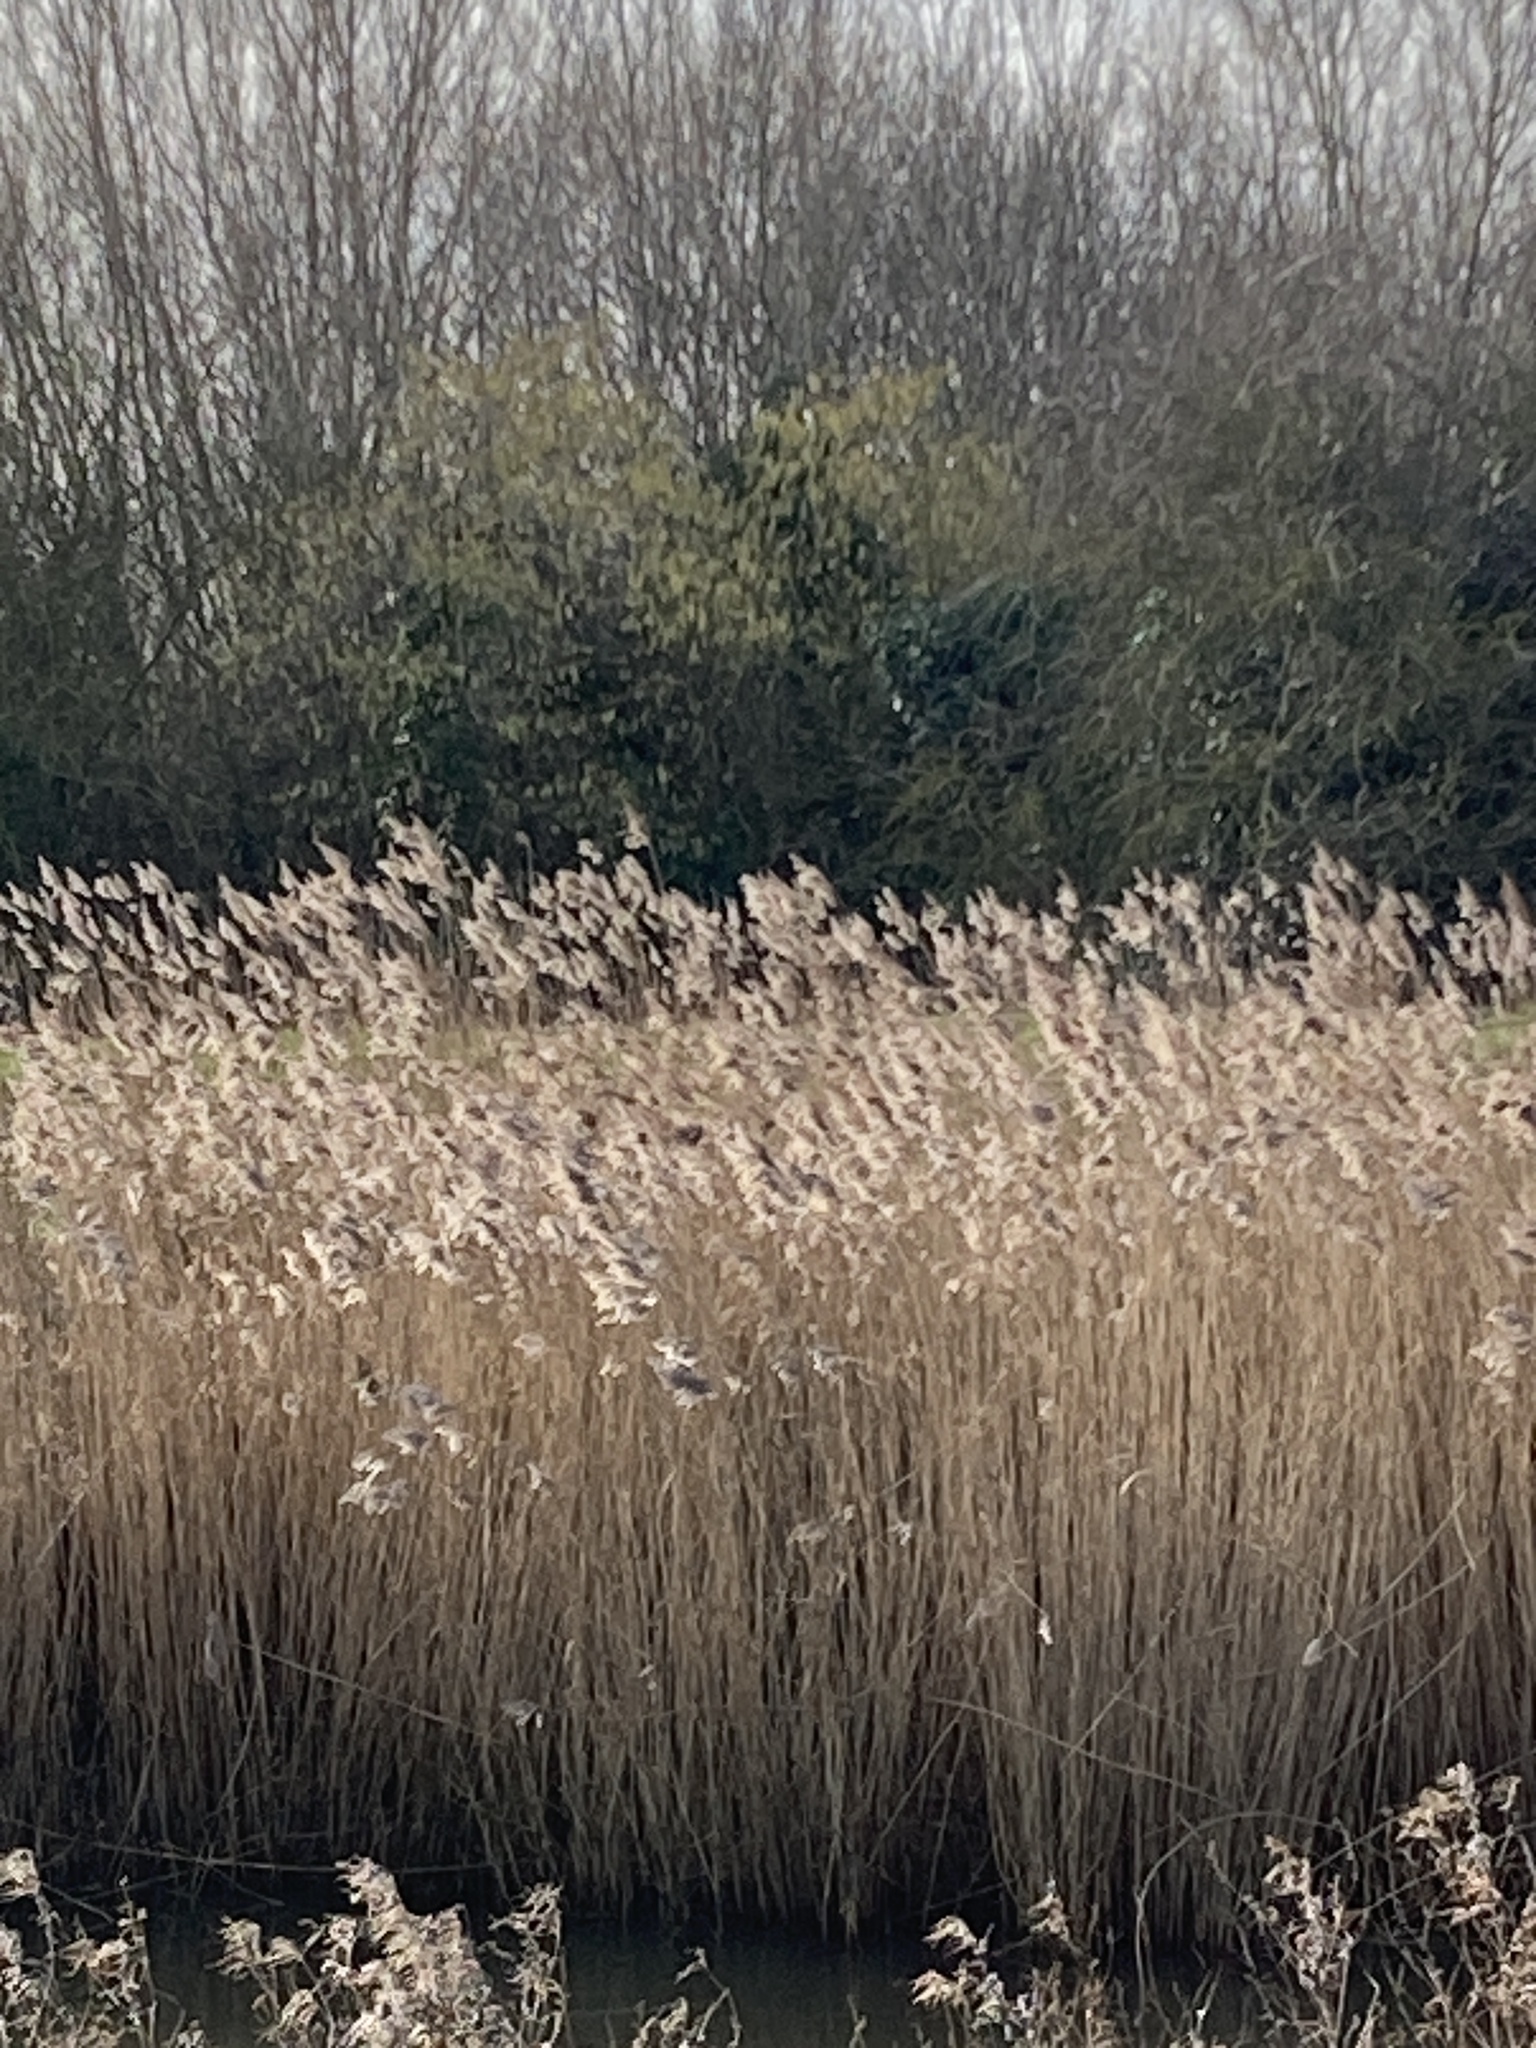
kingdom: Plantae
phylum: Tracheophyta
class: Liliopsida
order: Poales
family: Poaceae
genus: Phragmites
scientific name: Phragmites australis
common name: Common reed
